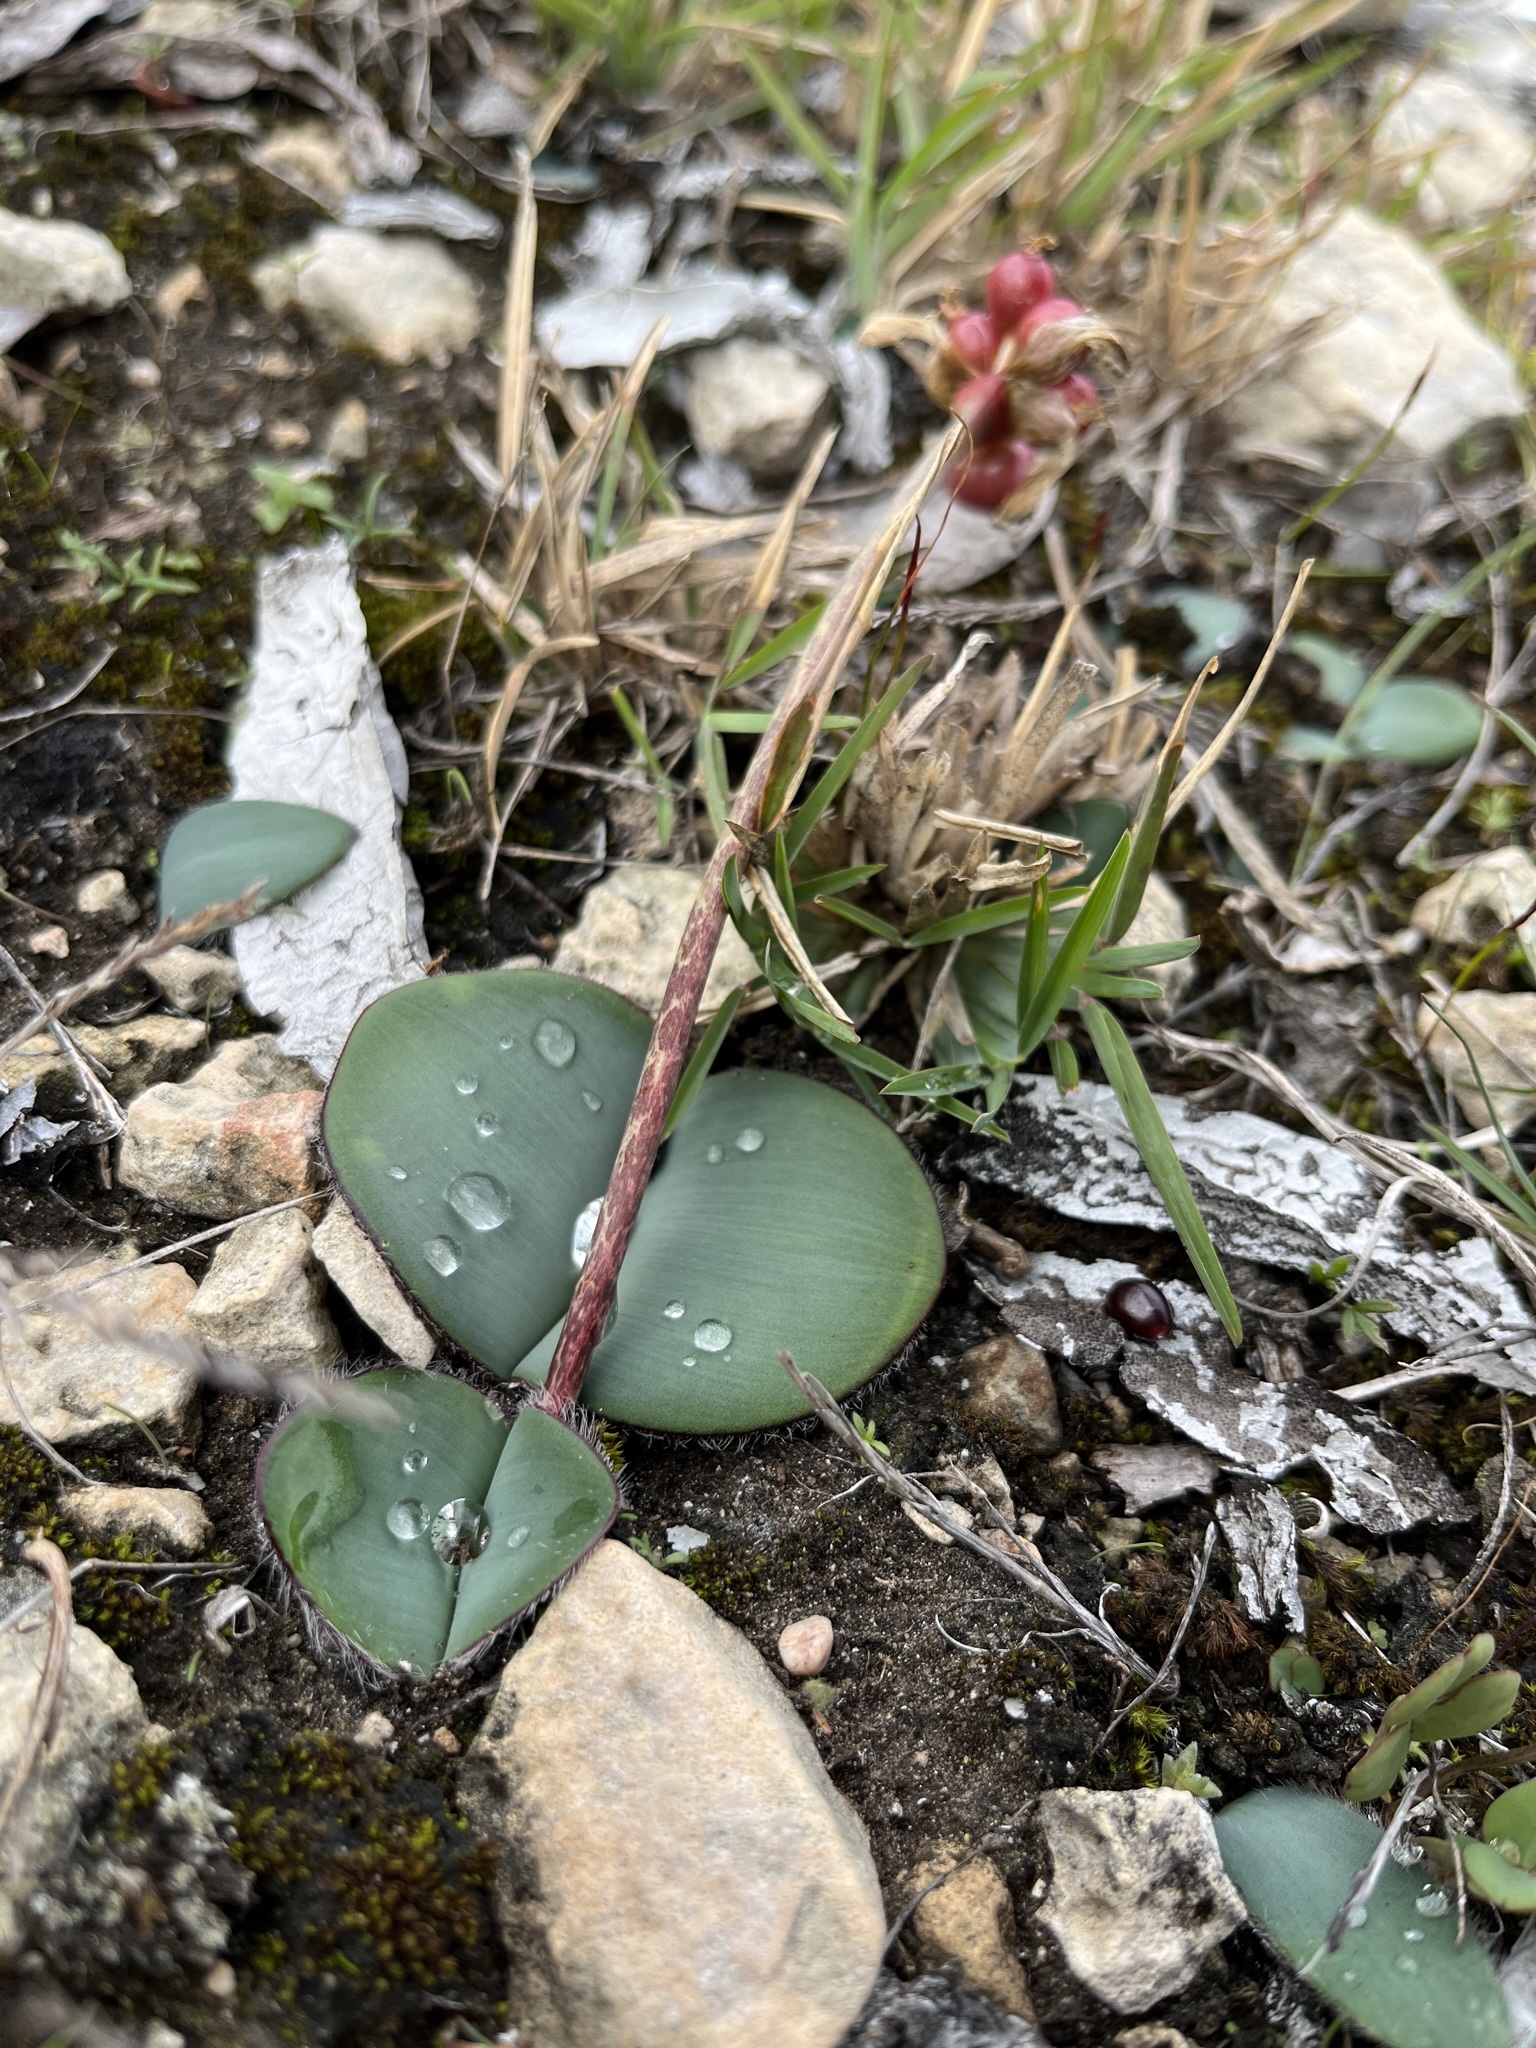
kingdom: Plantae
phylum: Tracheophyta
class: Liliopsida
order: Asparagales
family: Amaryllidaceae
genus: Haemanthus
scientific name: Haemanthus coccineus
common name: Cape-tulip
